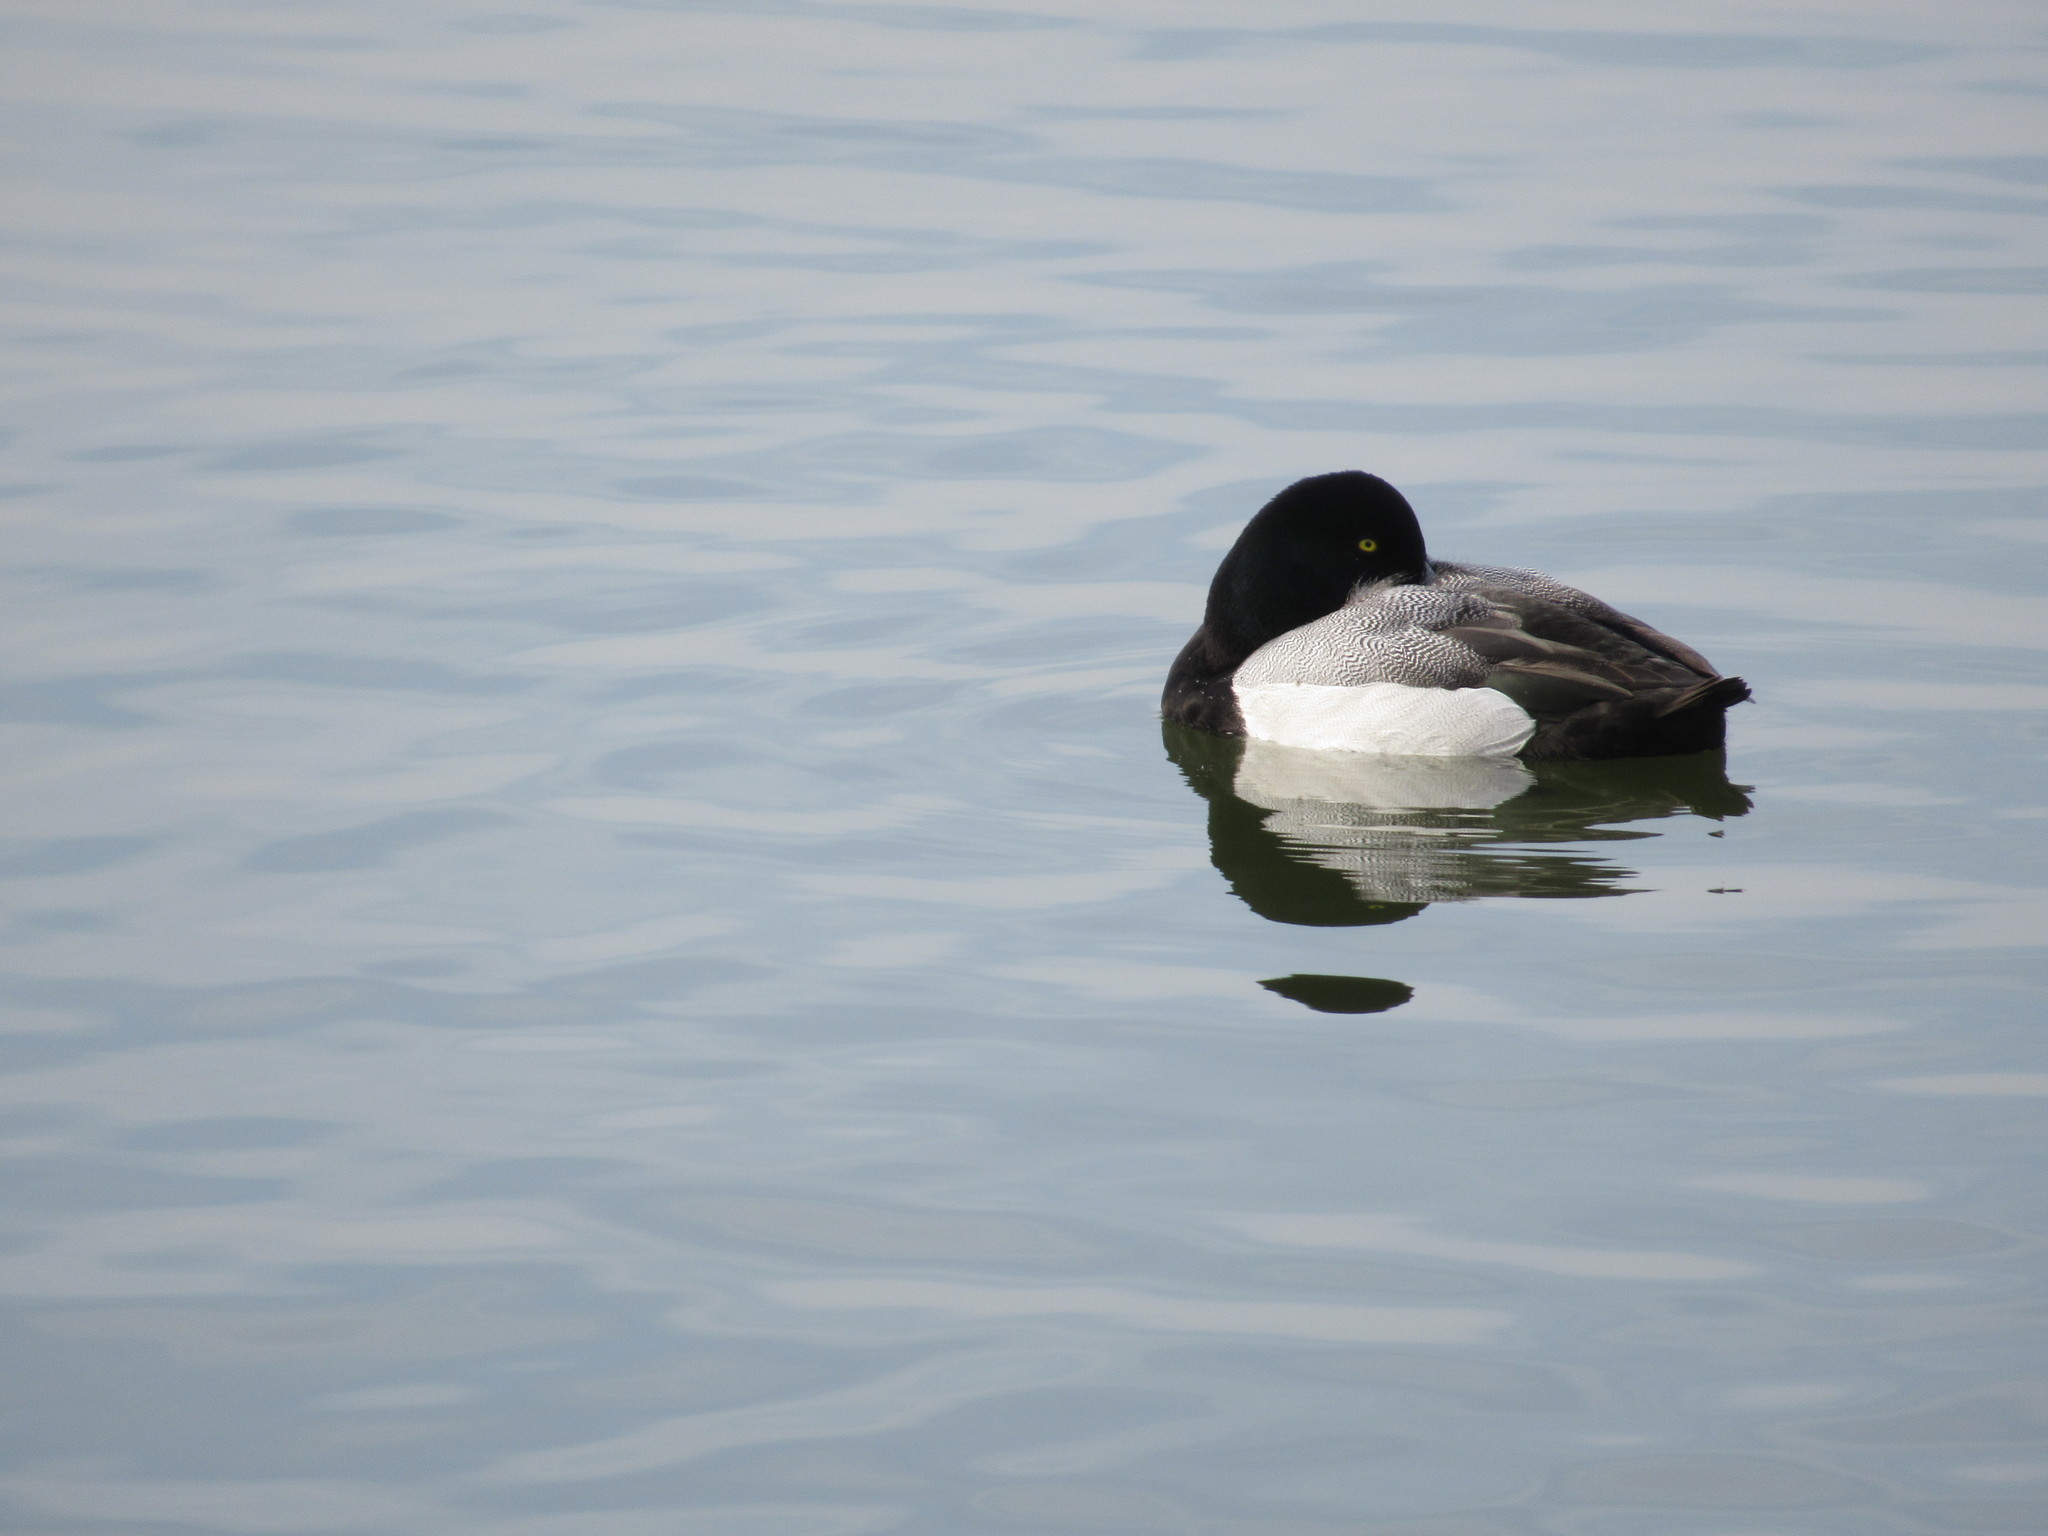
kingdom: Animalia
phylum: Chordata
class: Aves
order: Anseriformes
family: Anatidae
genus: Aythya
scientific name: Aythya marila
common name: Greater scaup
